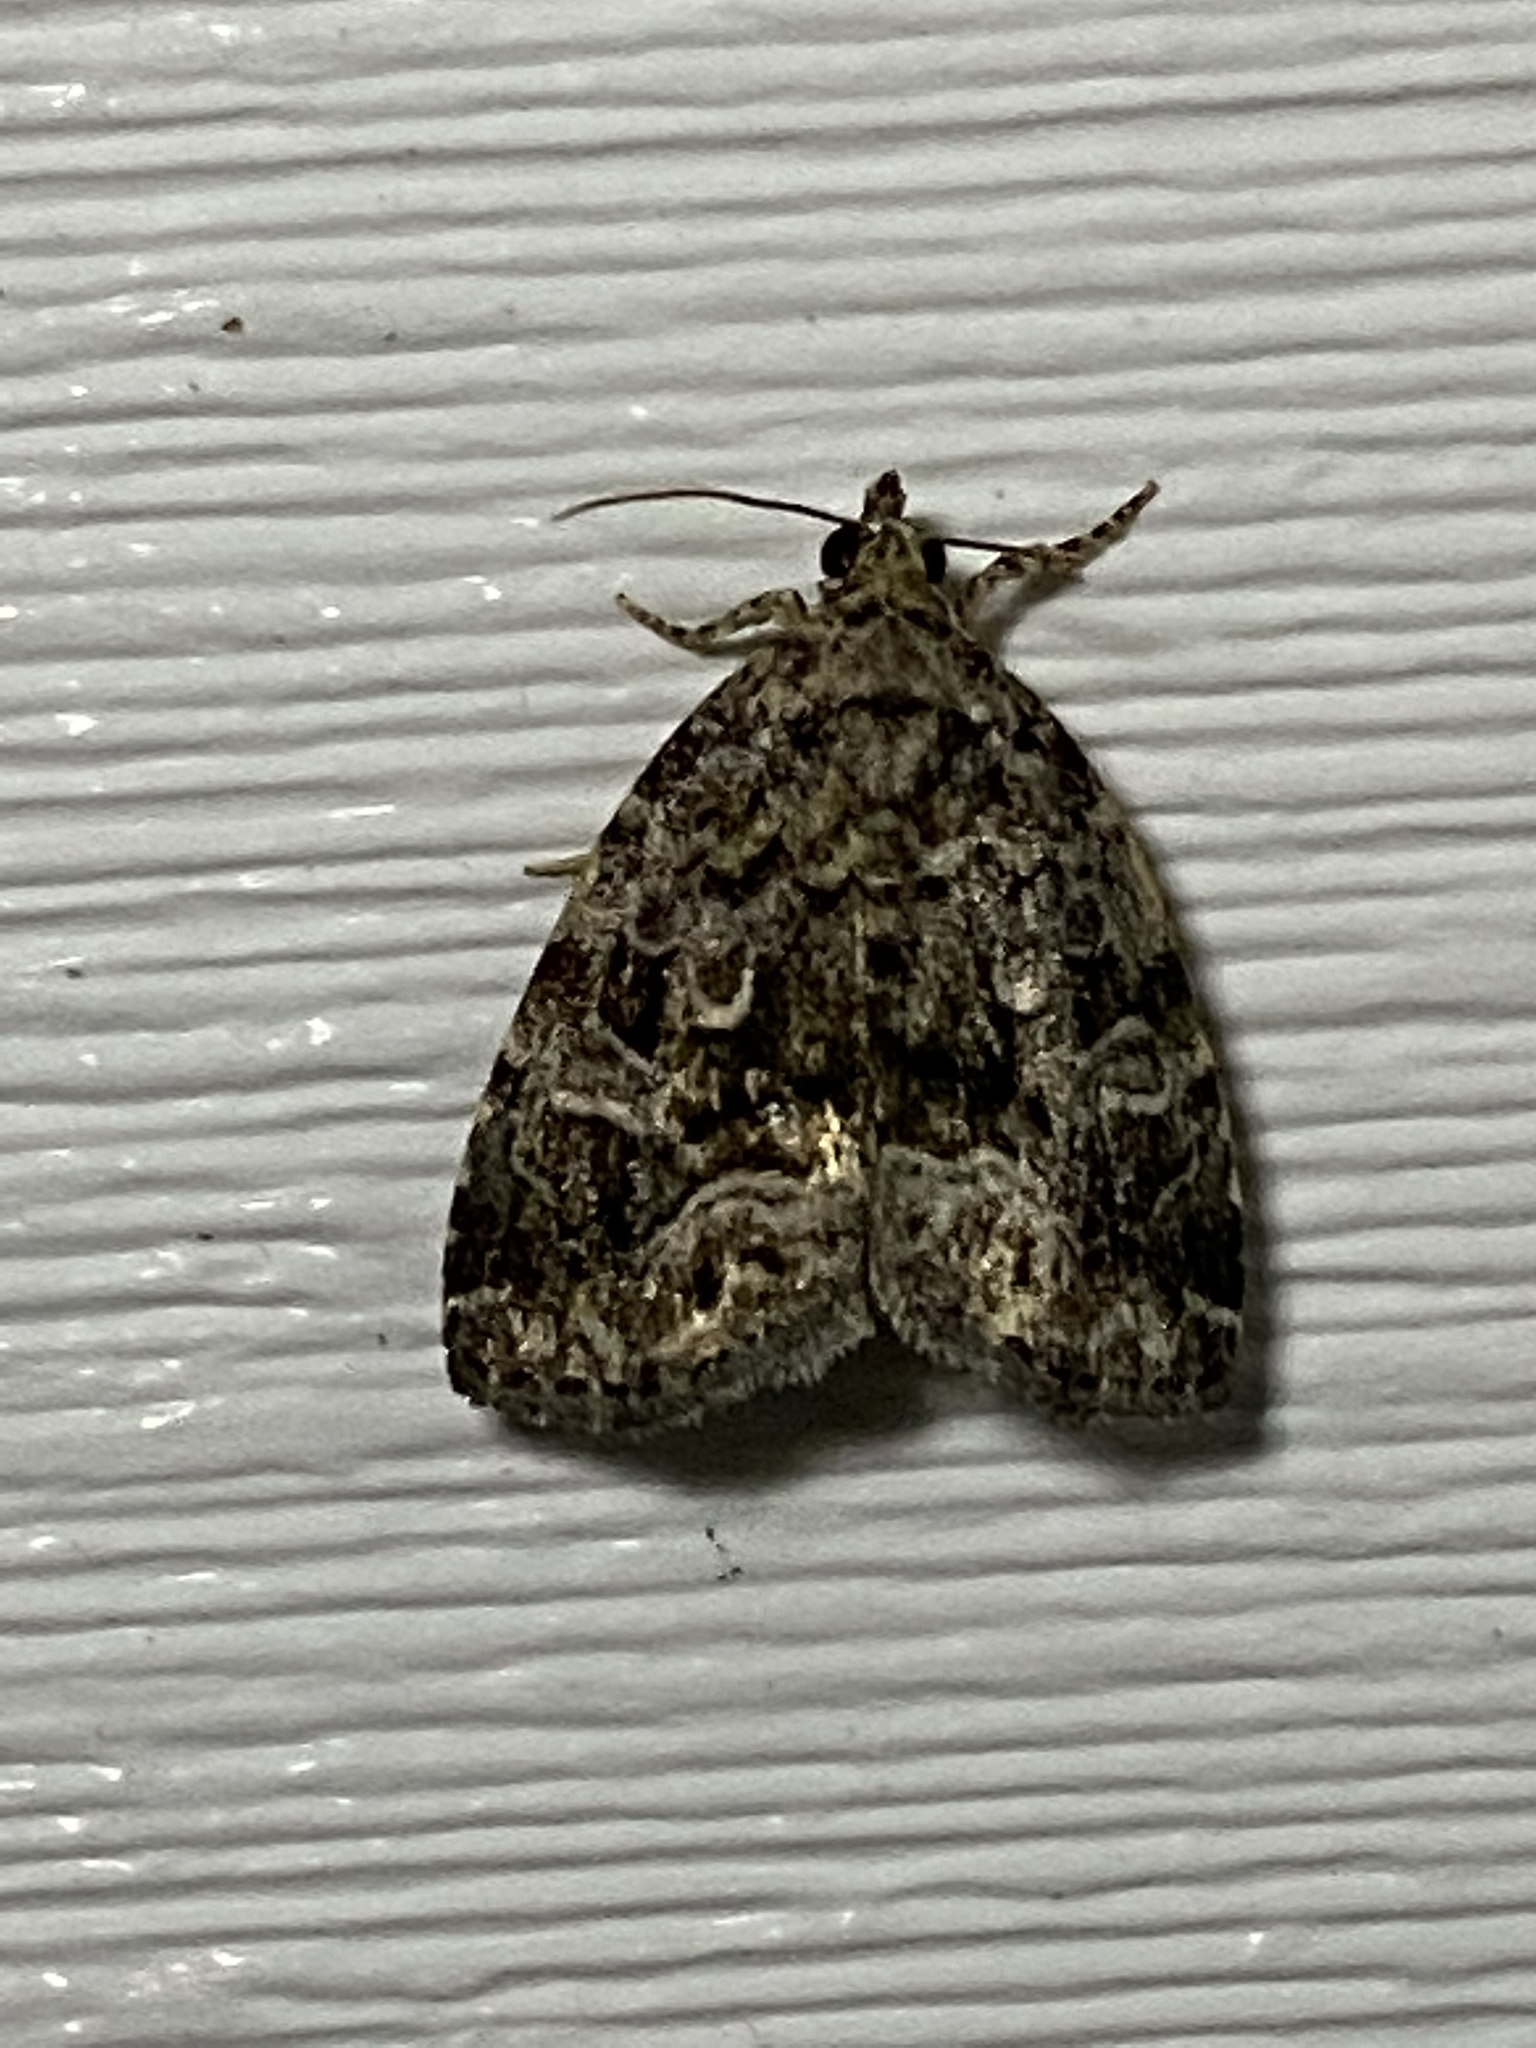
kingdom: Animalia
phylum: Arthropoda
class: Insecta
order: Lepidoptera
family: Noctuidae
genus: Protodeltote
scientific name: Protodeltote muscosula
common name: Large mossy glyph
